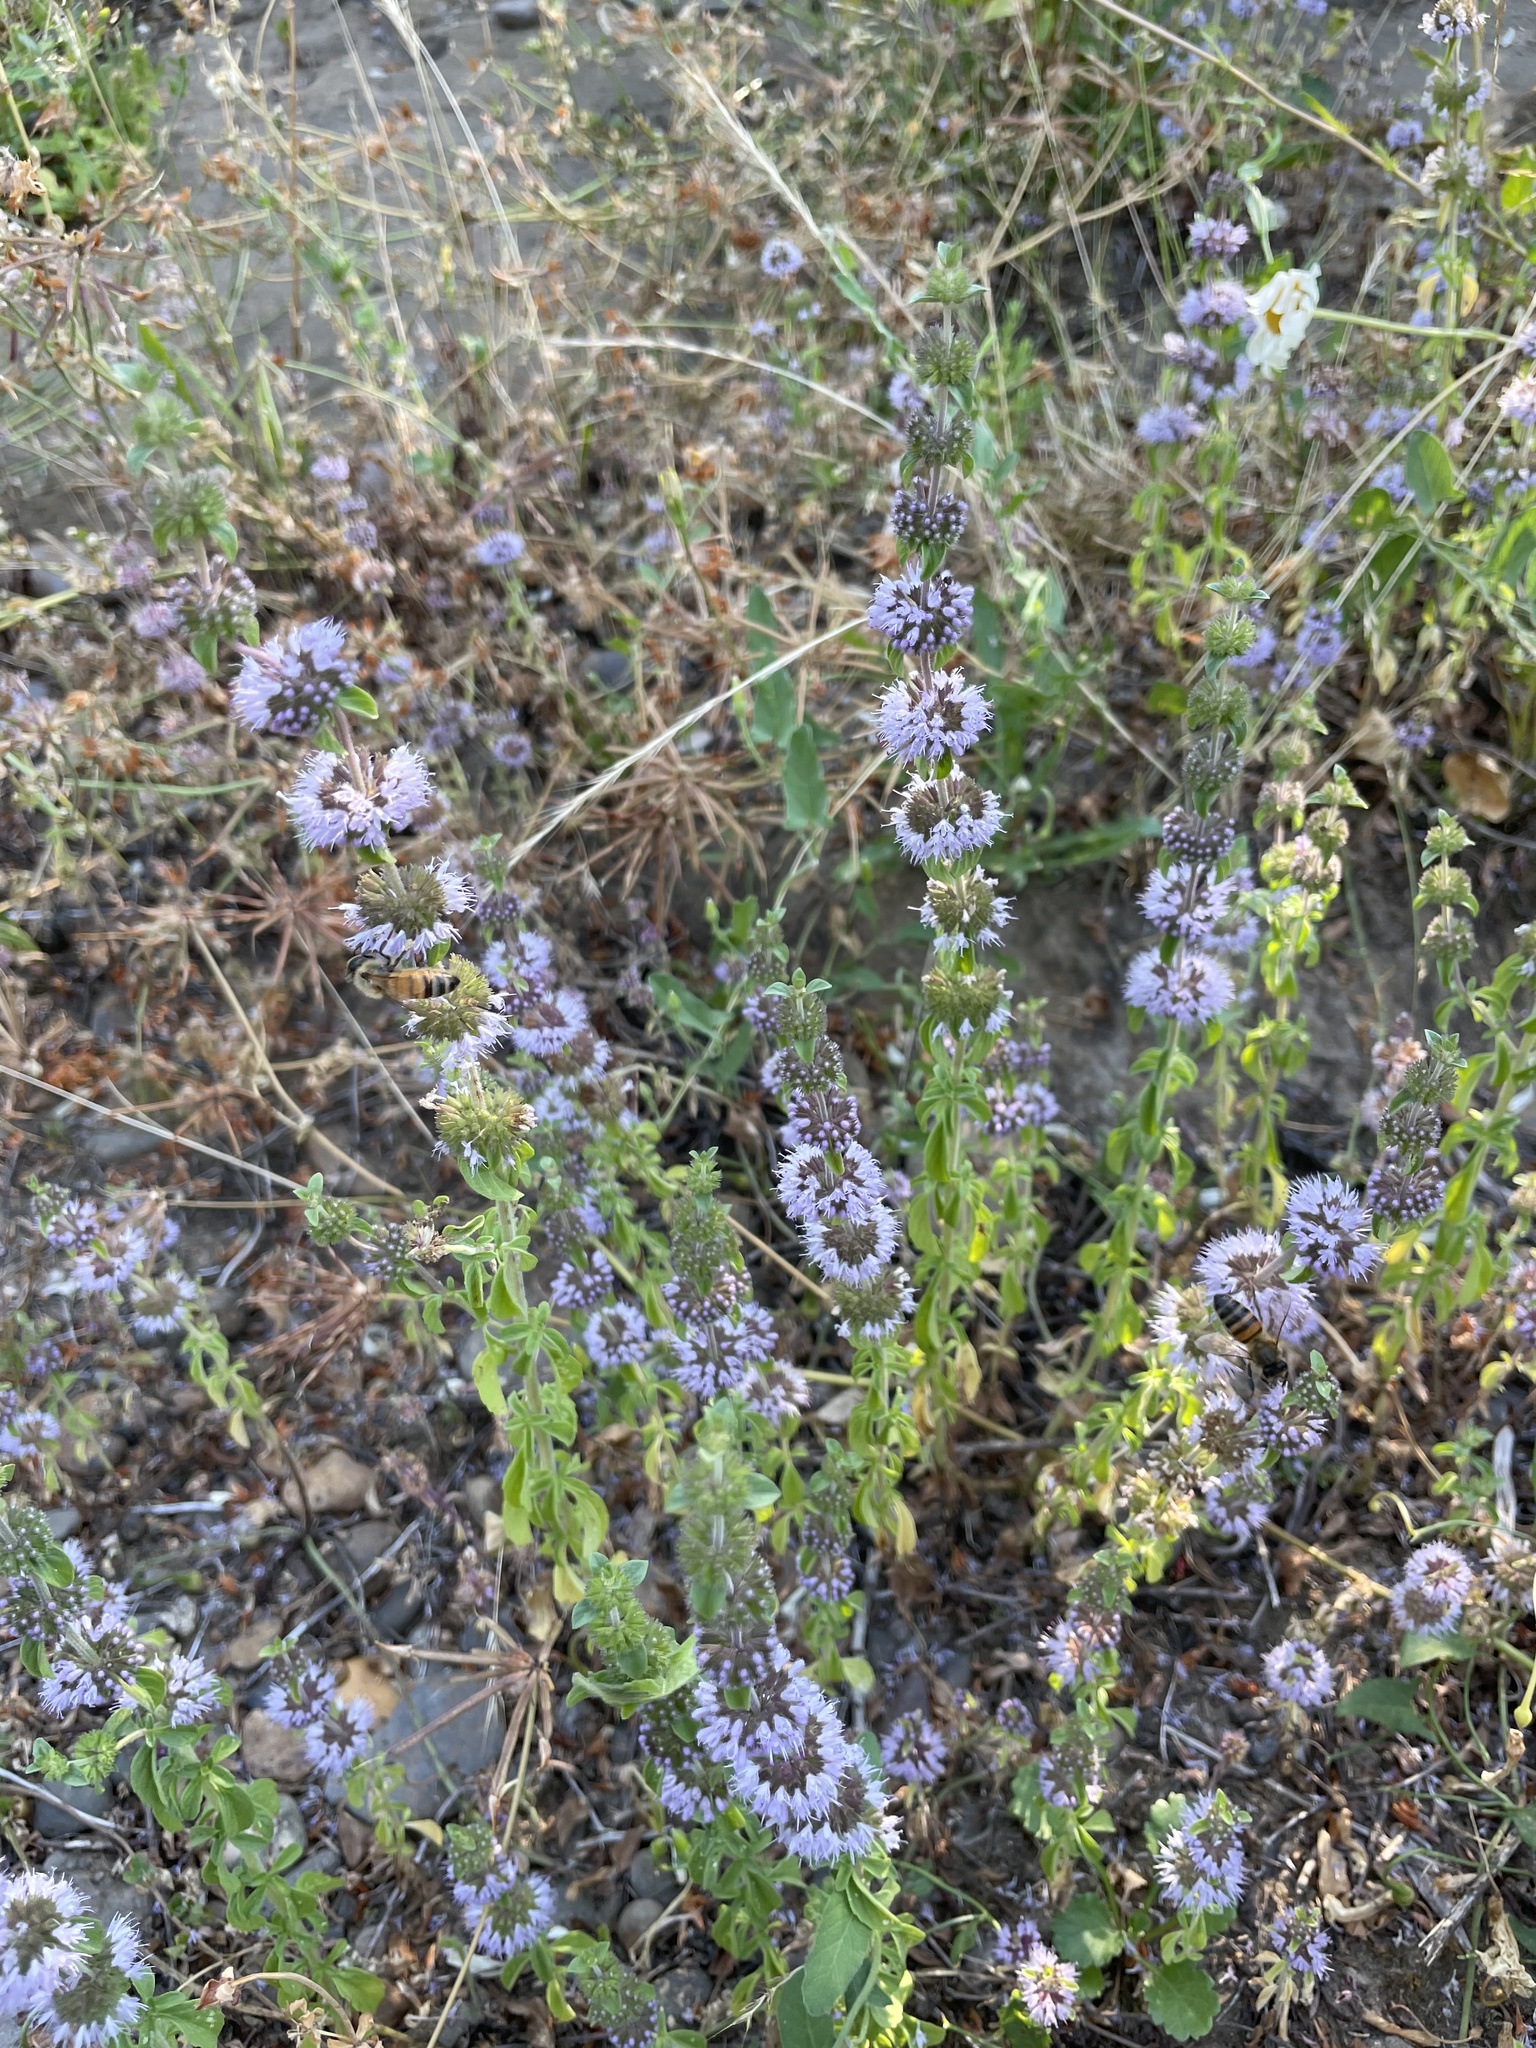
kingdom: Plantae
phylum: Tracheophyta
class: Magnoliopsida
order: Lamiales
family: Lamiaceae
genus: Mentha
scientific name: Mentha pulegium
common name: Pennyroyal
